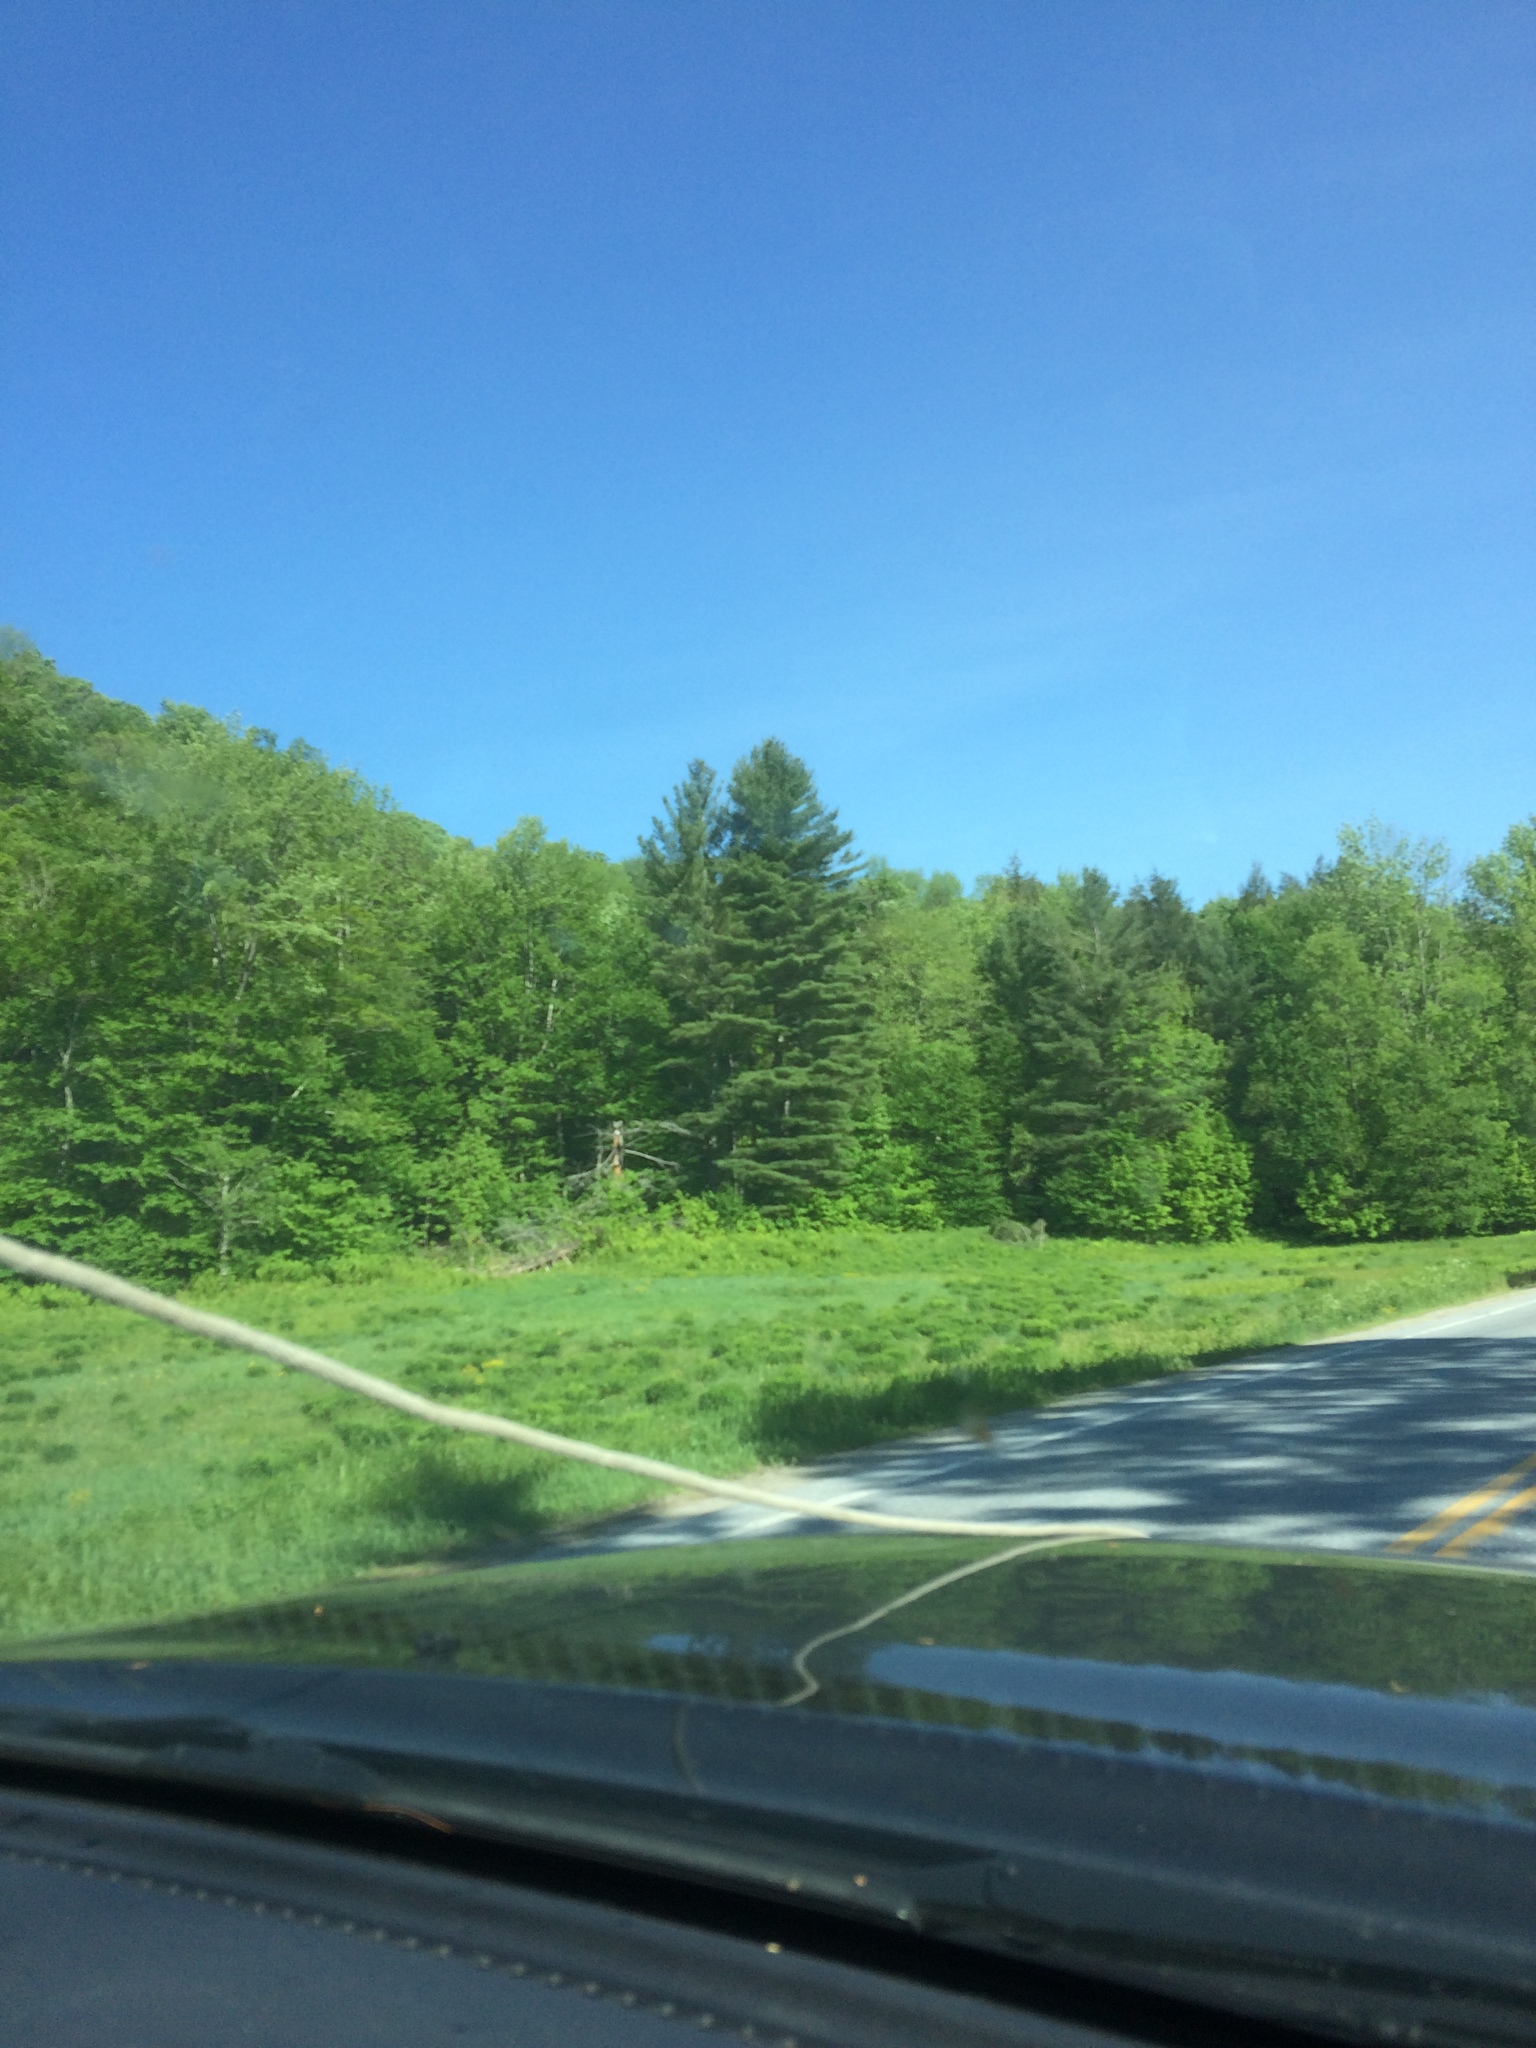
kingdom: Plantae
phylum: Tracheophyta
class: Pinopsida
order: Pinales
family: Pinaceae
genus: Pinus
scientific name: Pinus strobus
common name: Weymouth pine
